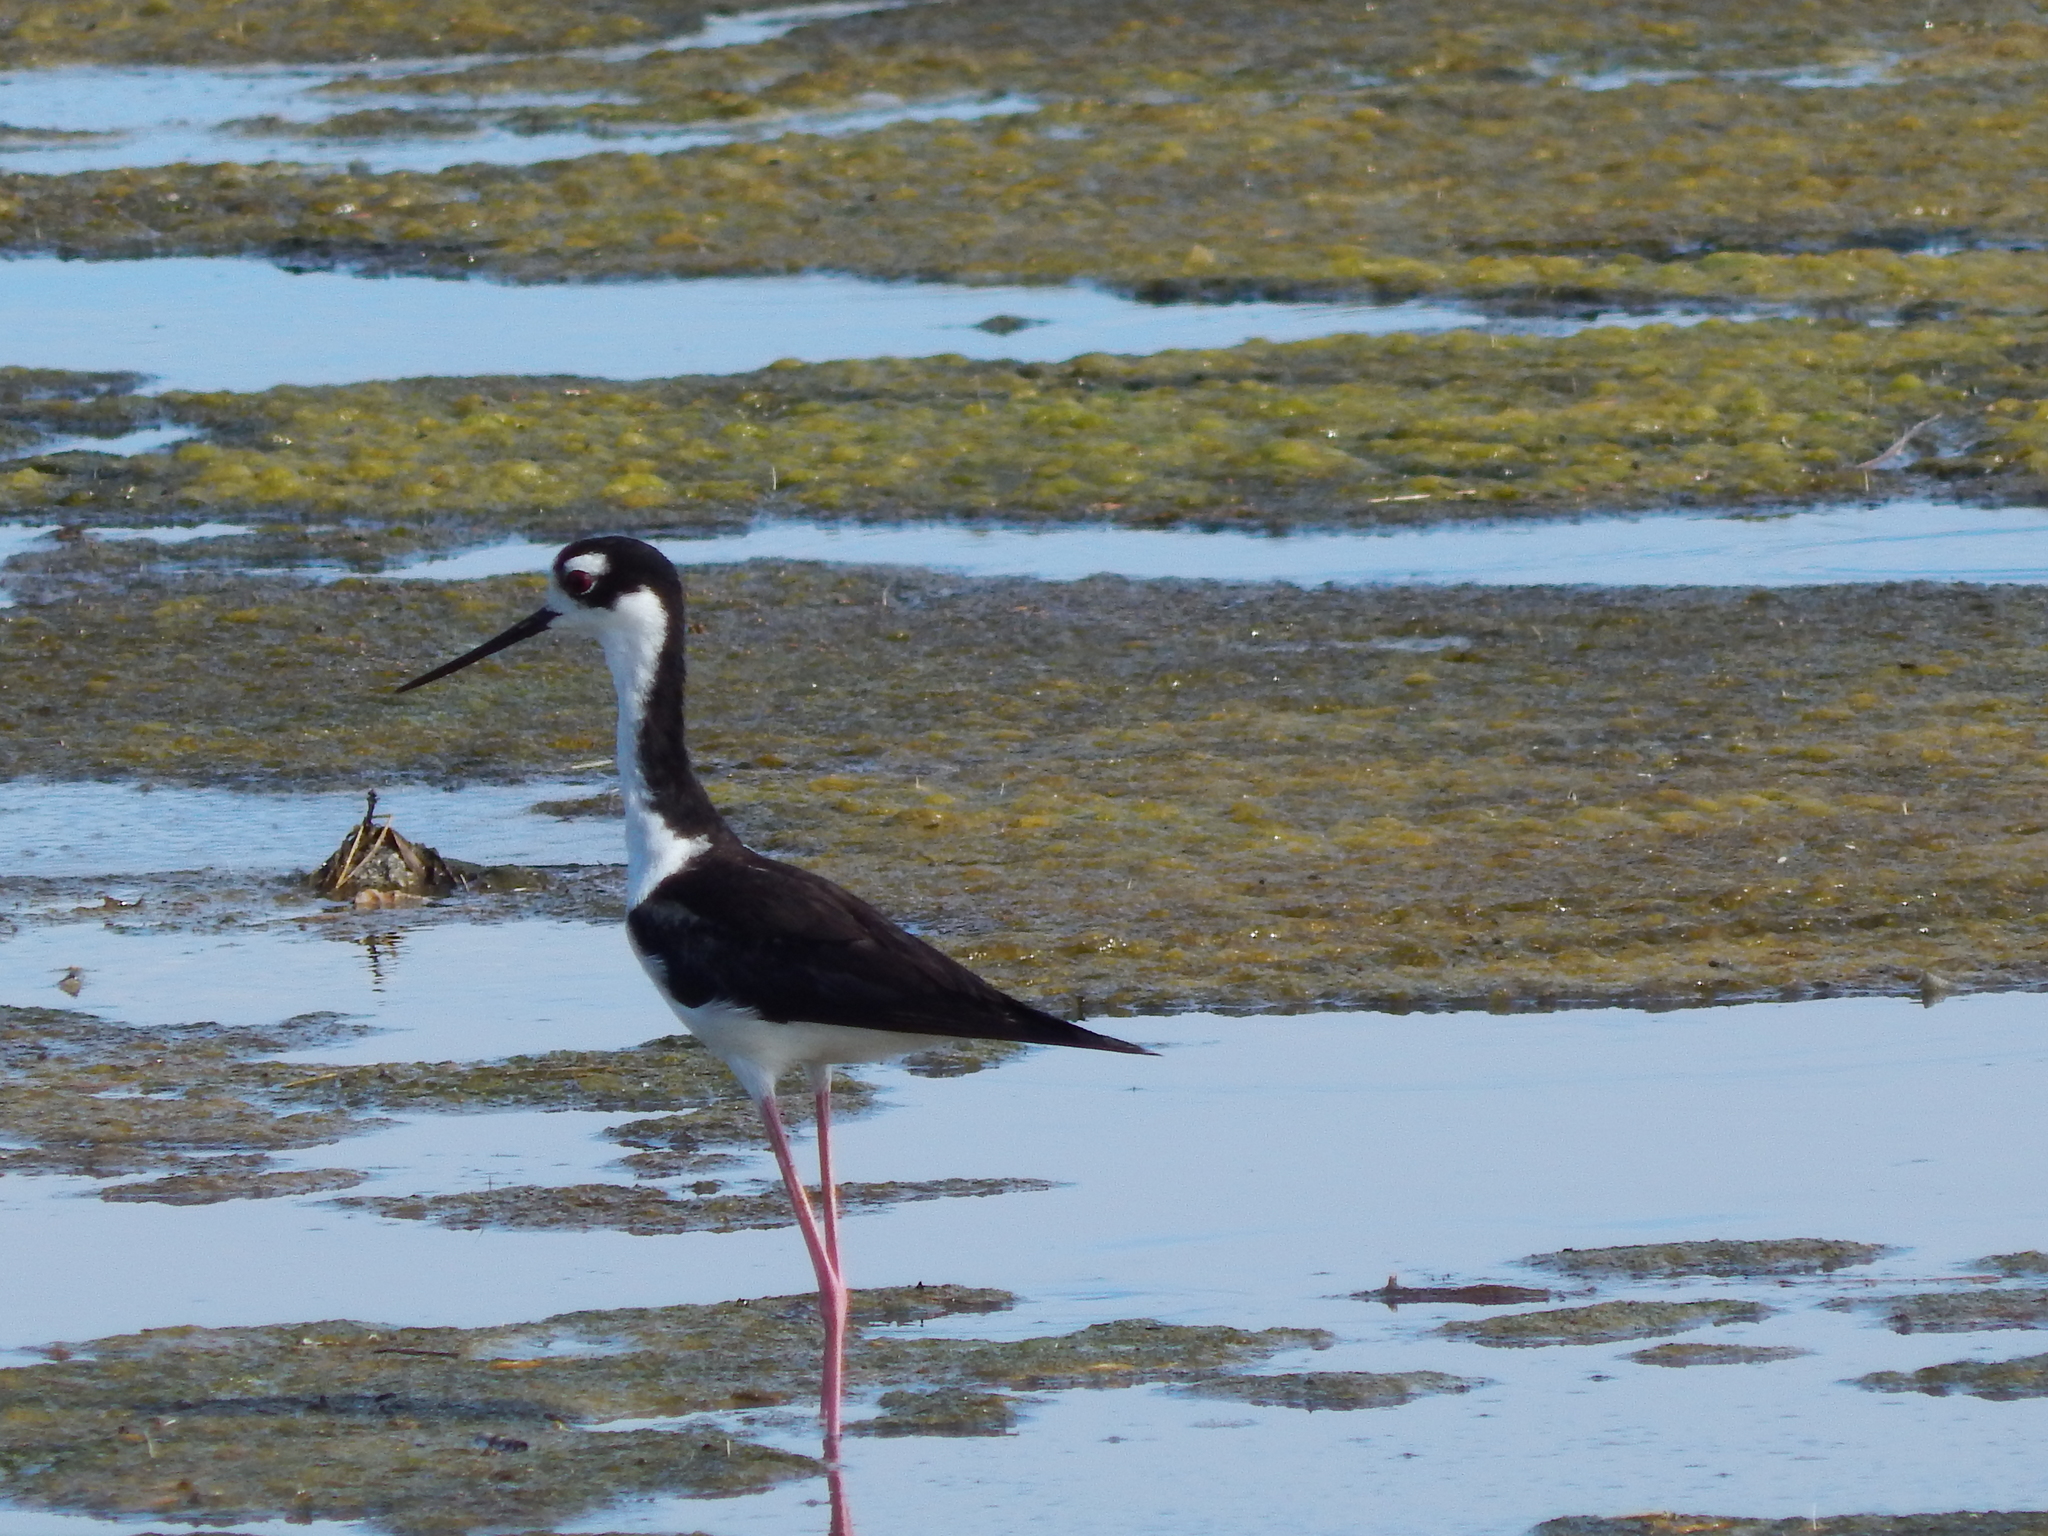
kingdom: Animalia
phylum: Chordata
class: Aves
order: Charadriiformes
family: Recurvirostridae
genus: Himantopus
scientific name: Himantopus mexicanus
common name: Black-necked stilt
